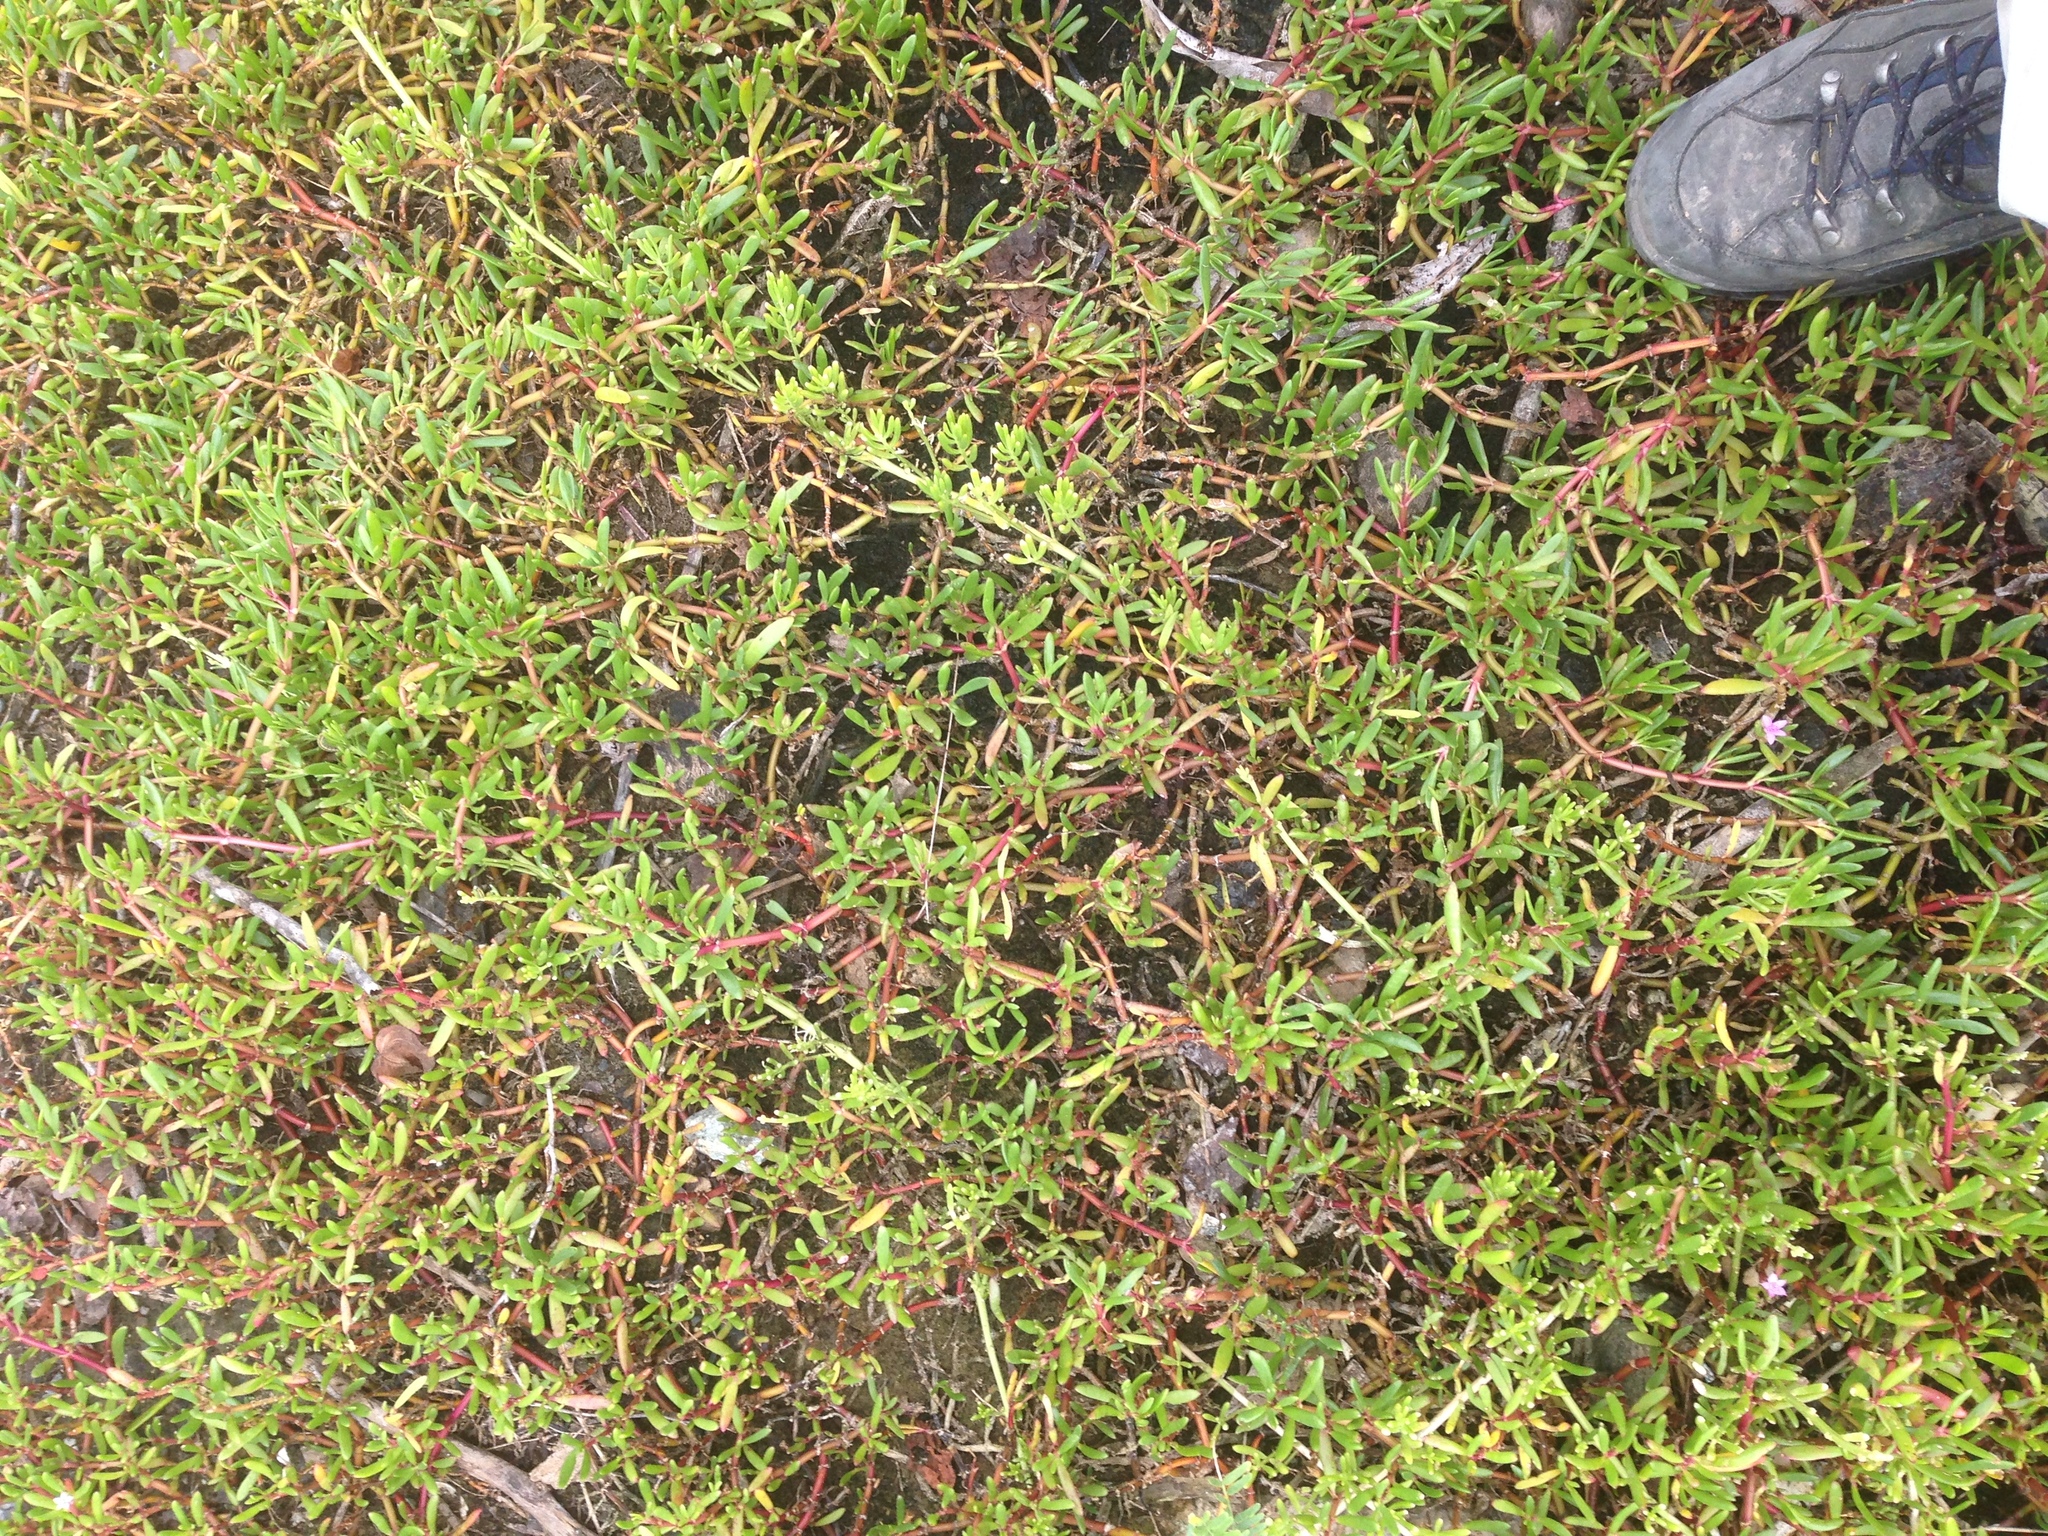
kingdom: Plantae
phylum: Tracheophyta
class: Magnoliopsida
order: Caryophyllales
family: Aizoaceae
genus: Sesuvium
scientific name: Sesuvium portulacastrum
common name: Sea-purslane
